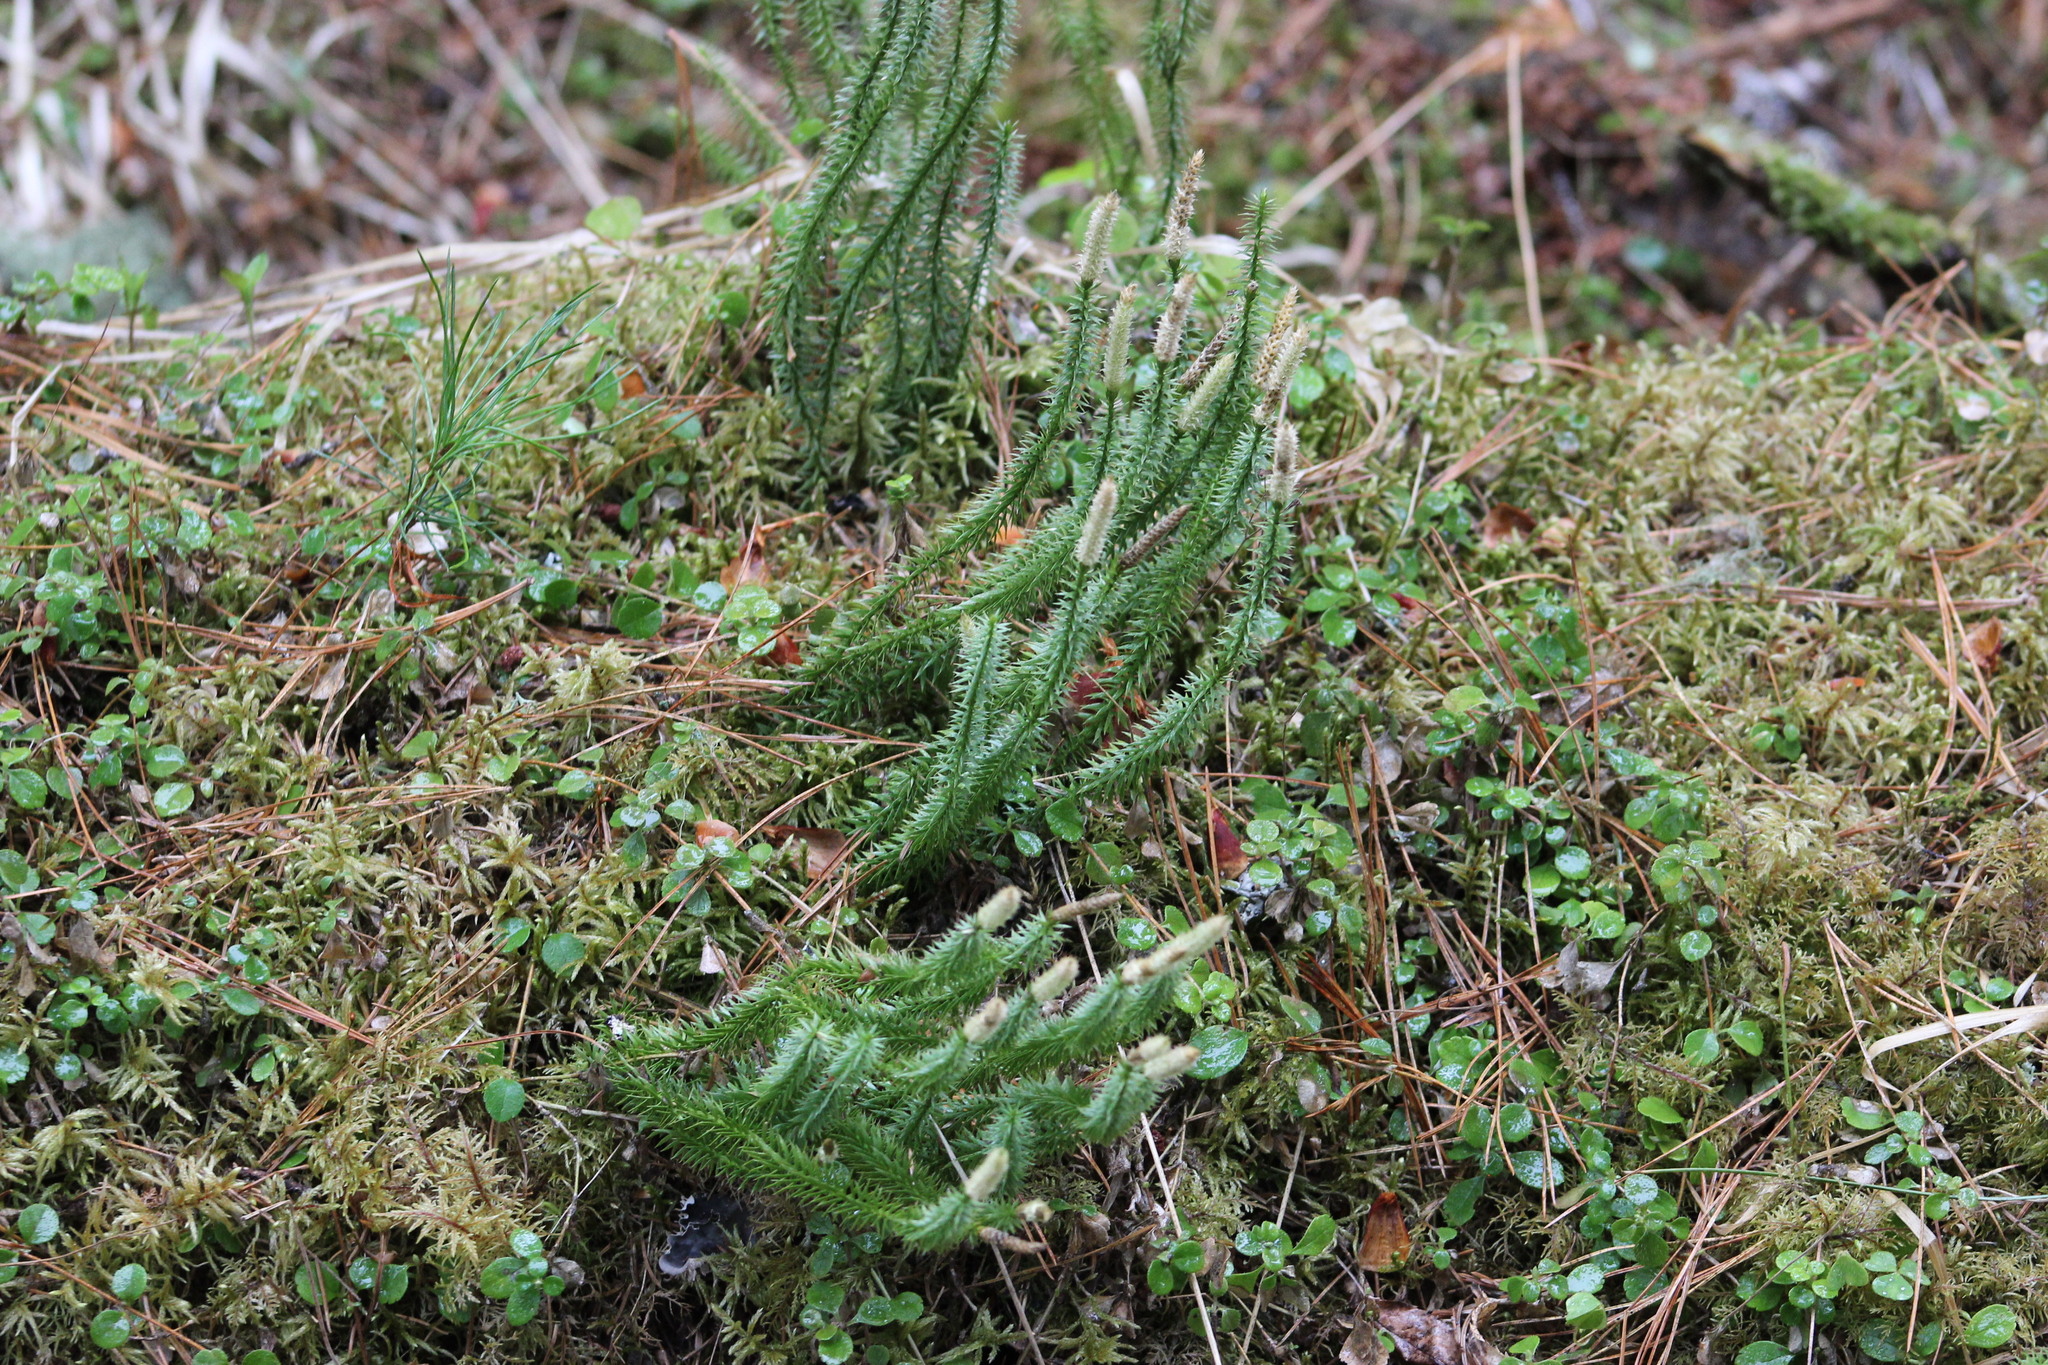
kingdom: Plantae
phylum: Tracheophyta
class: Lycopodiopsida
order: Lycopodiales
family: Lycopodiaceae
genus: Spinulum
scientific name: Spinulum annotinum
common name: Interrupted club-moss
